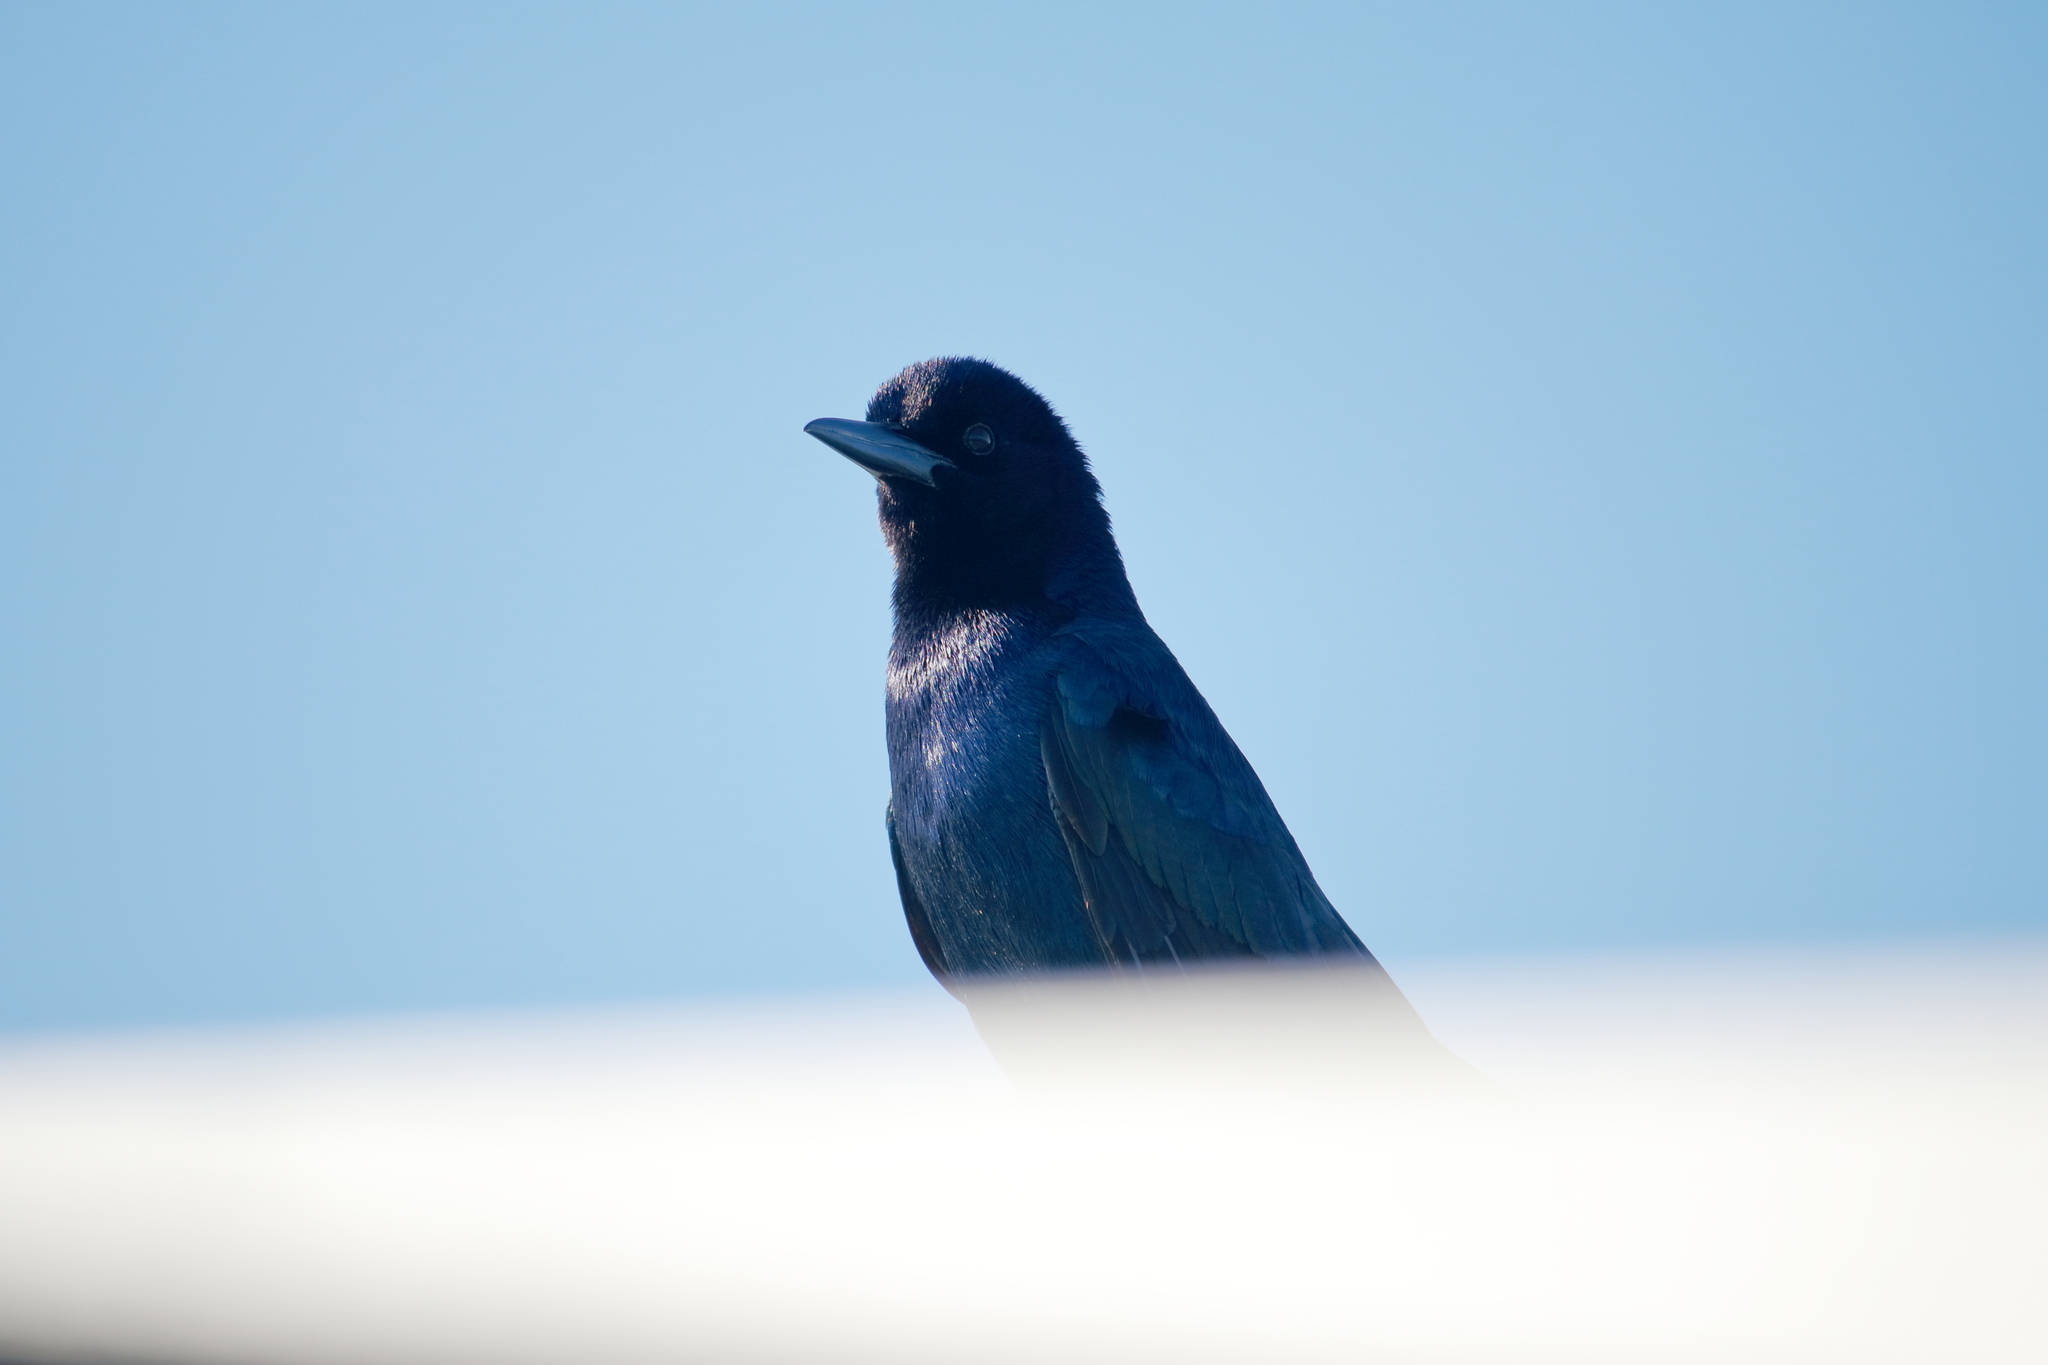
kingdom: Animalia
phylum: Chordata
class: Aves
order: Passeriformes
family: Icteridae
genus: Quiscalus
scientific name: Quiscalus major
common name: Boat-tailed grackle
